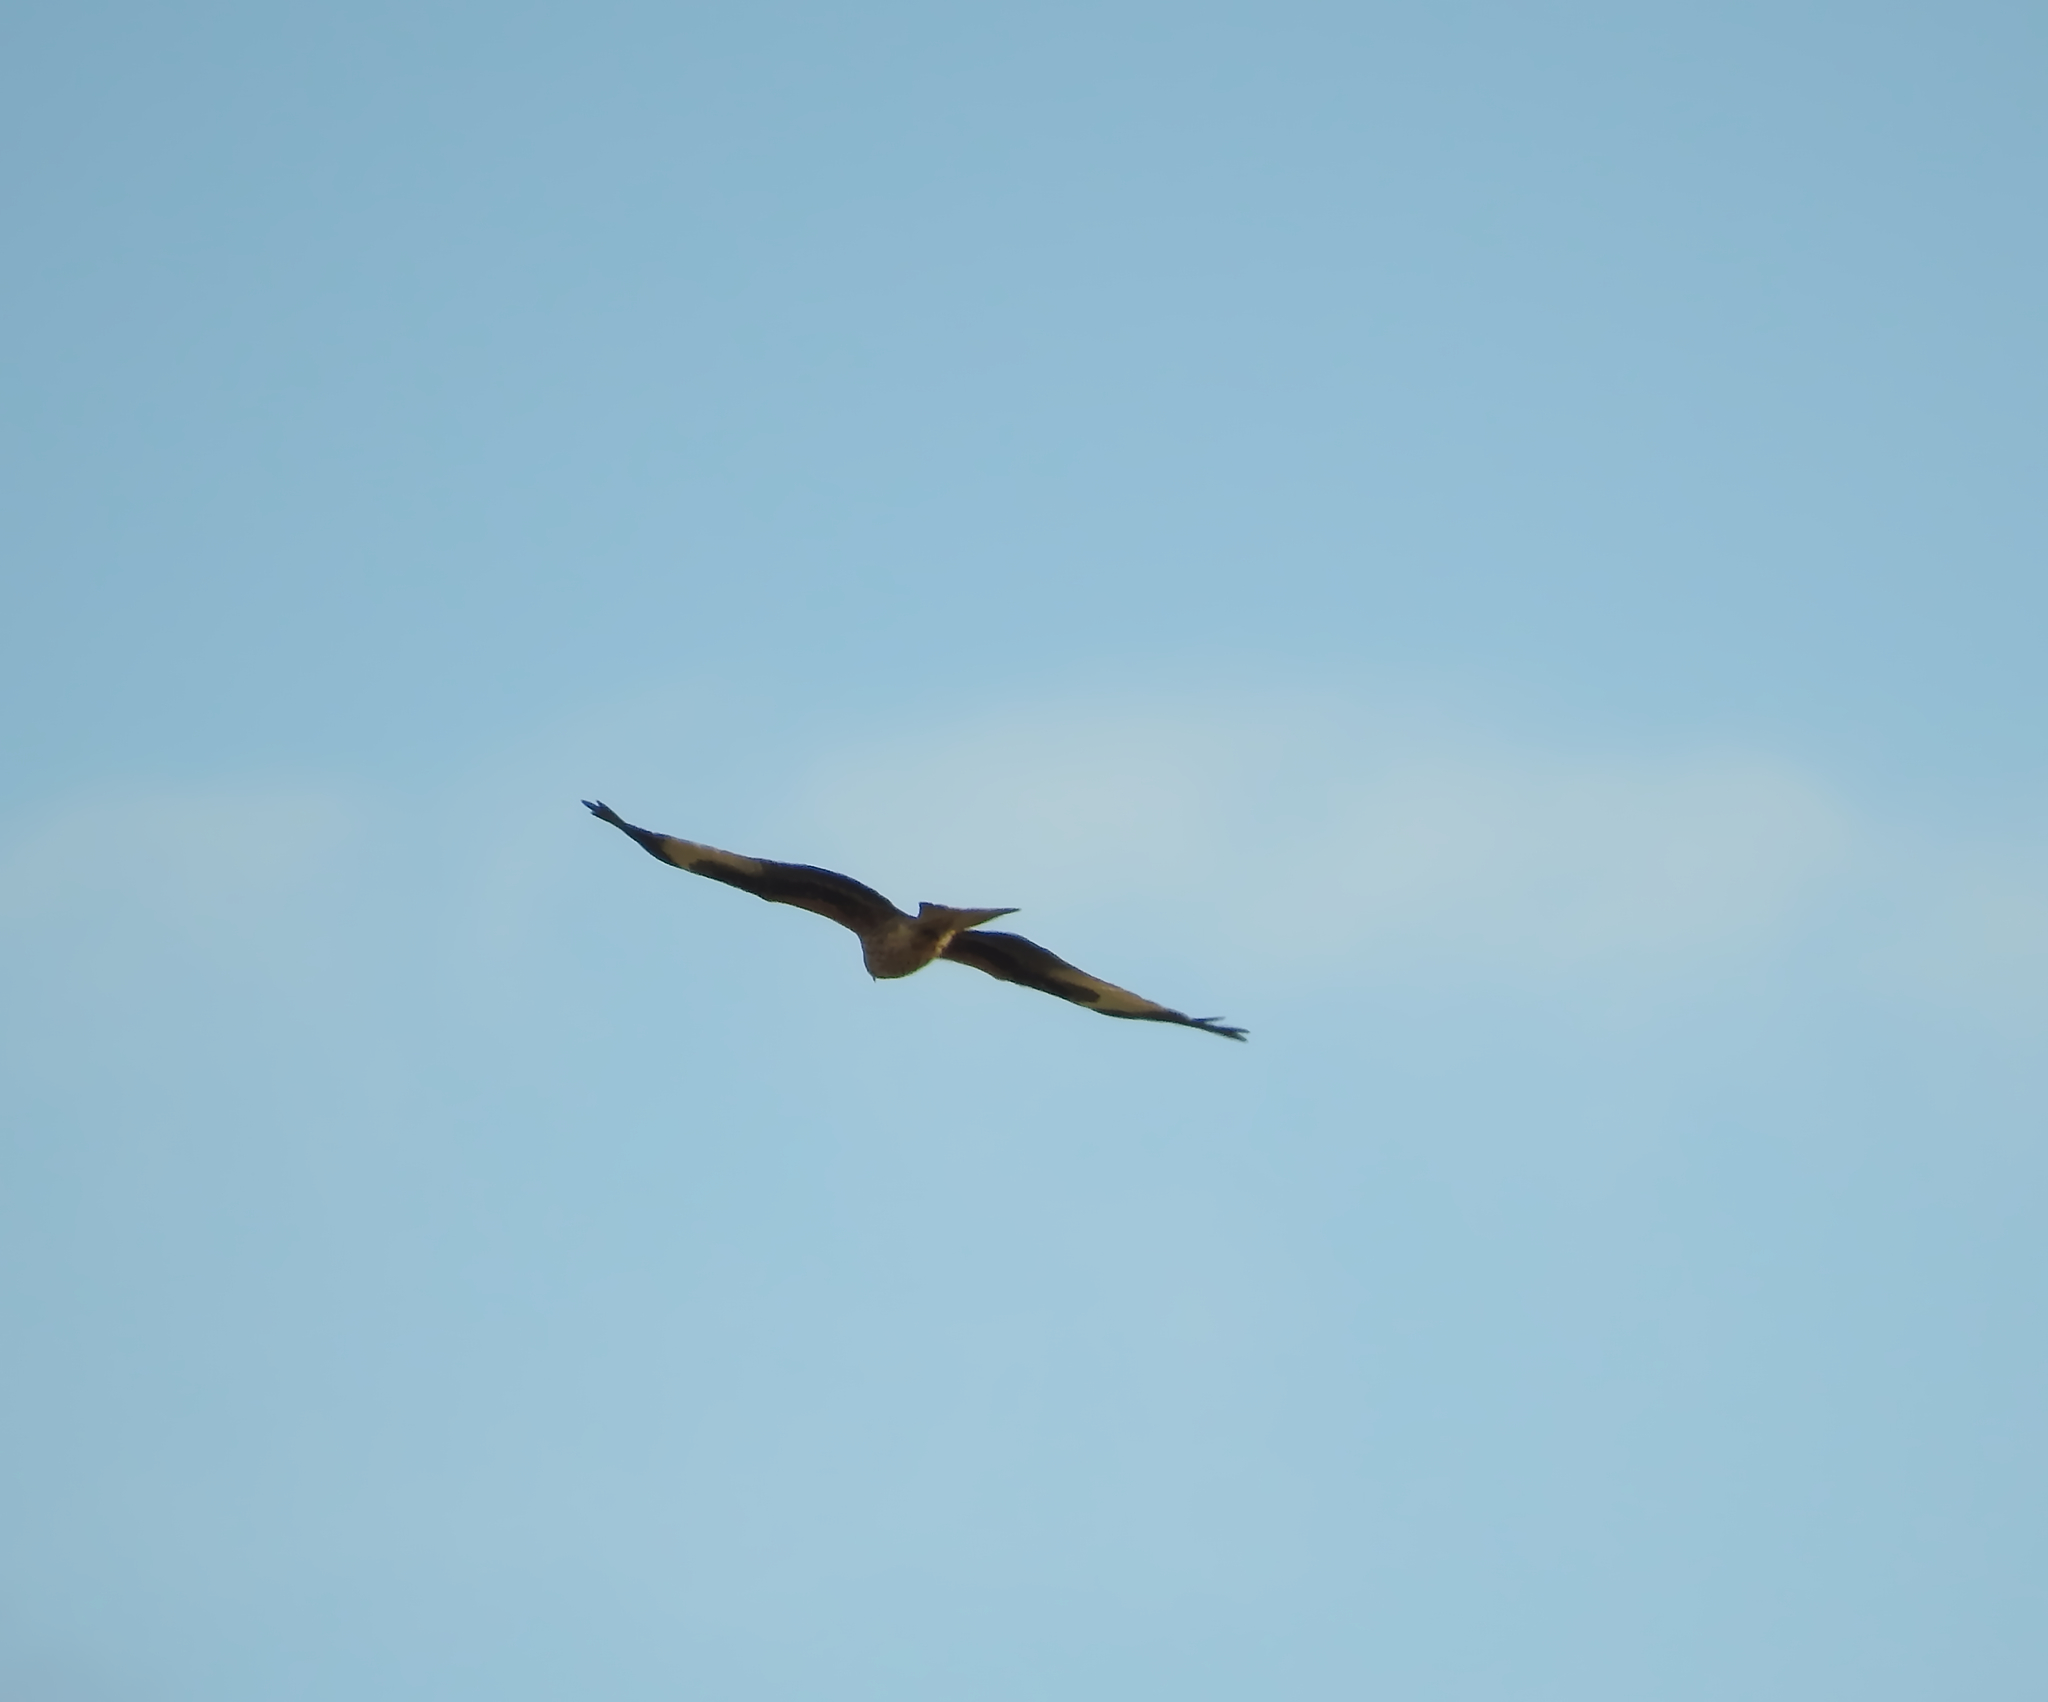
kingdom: Animalia
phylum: Chordata
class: Aves
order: Accipitriformes
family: Accipitridae
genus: Milvus
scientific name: Milvus milvus
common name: Red kite
